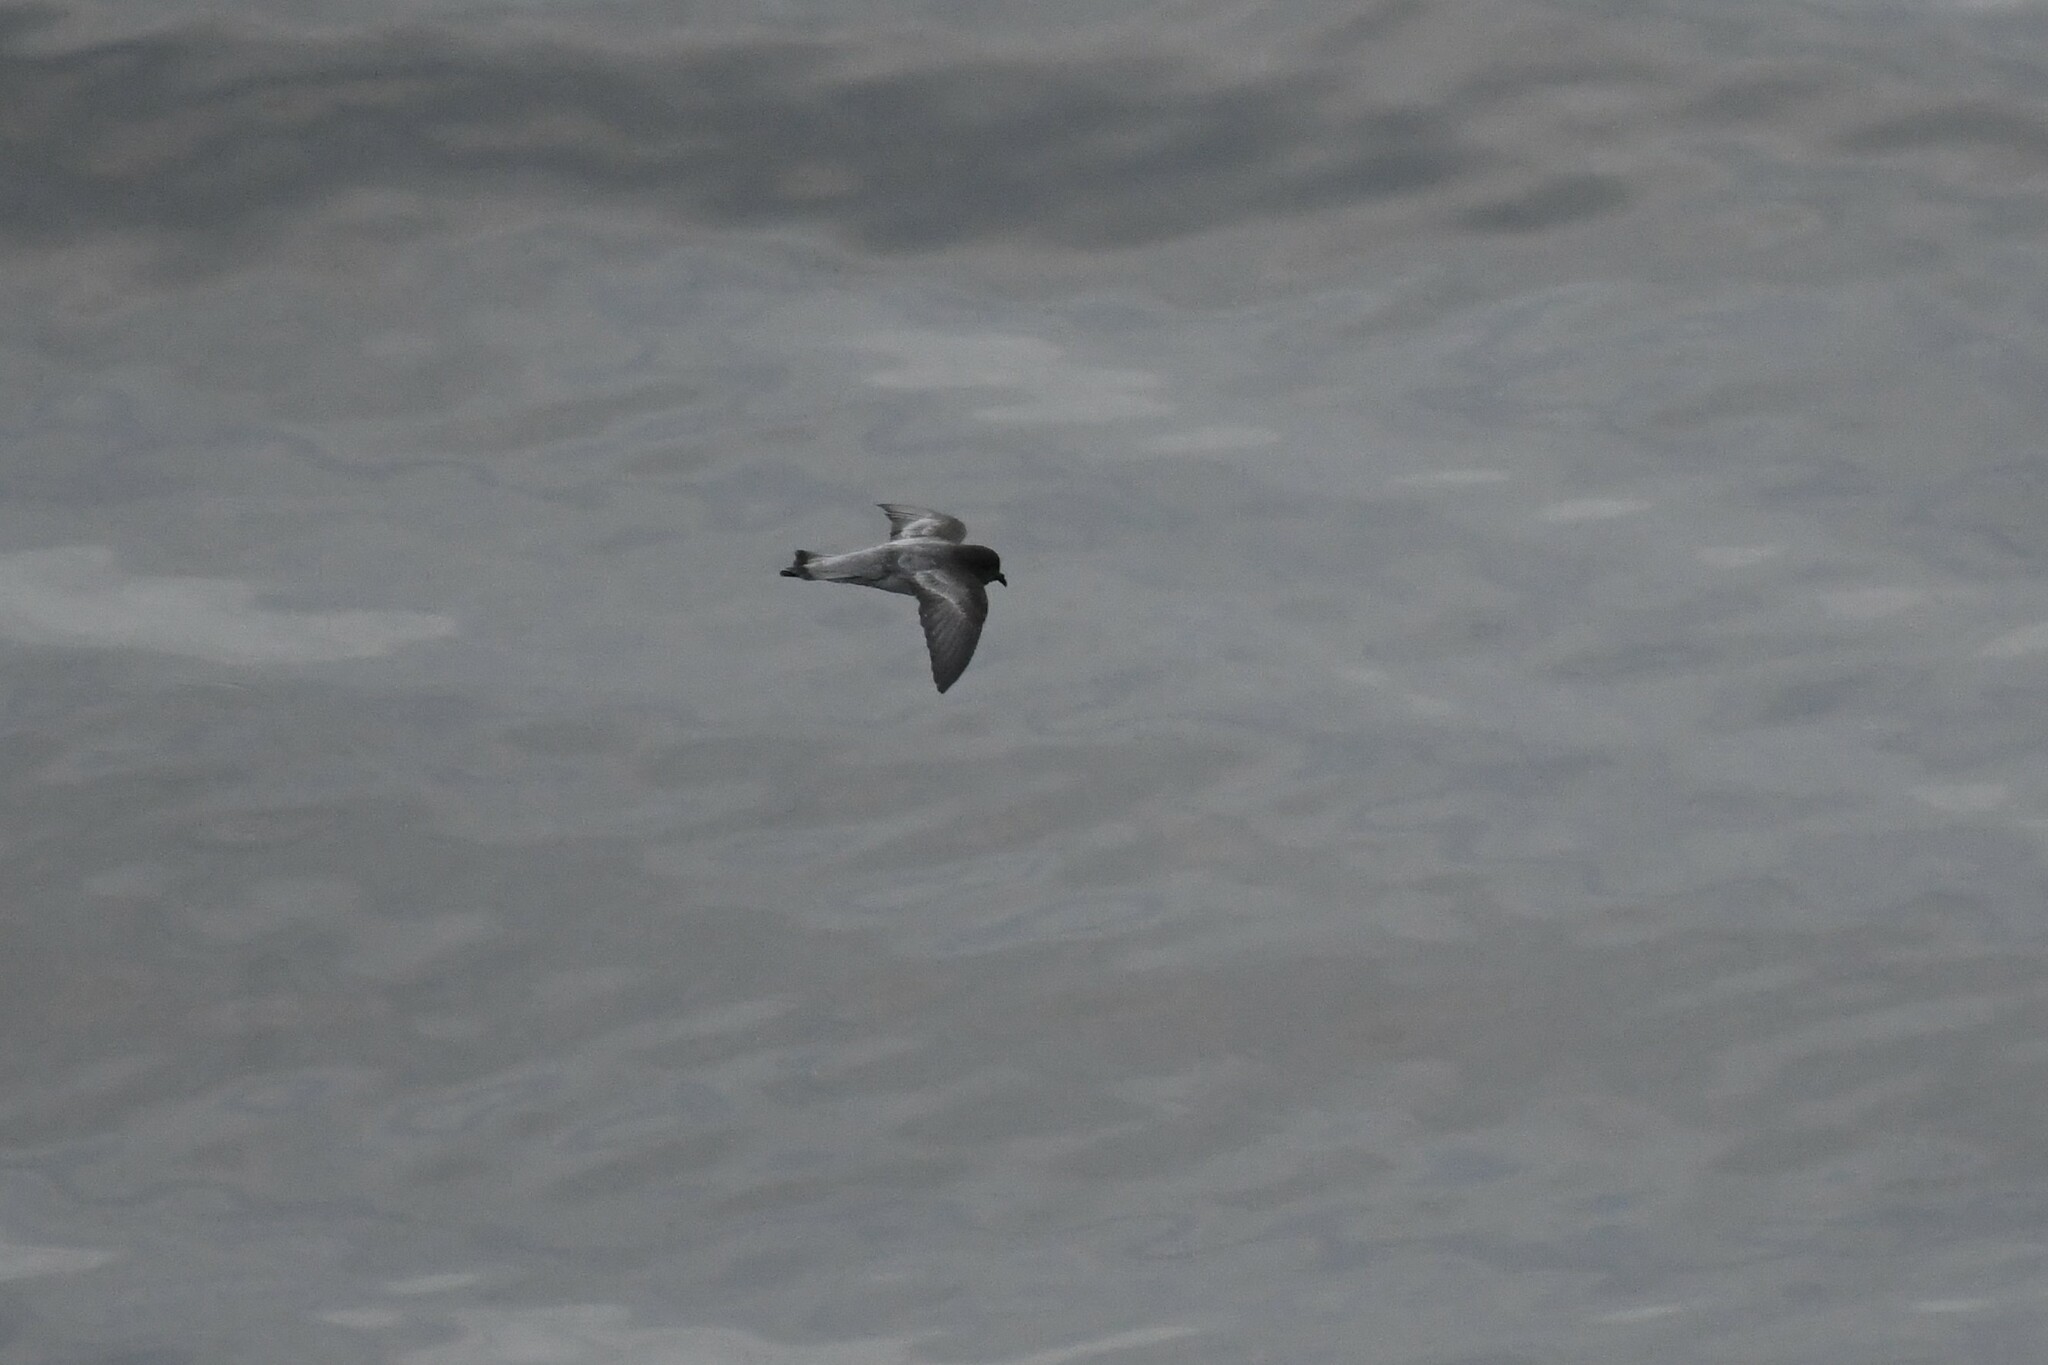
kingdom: Animalia
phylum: Chordata
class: Aves
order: Procellariiformes
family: Hydrobatidae
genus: Garrodia
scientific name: Garrodia nereis
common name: Grey-backed storm petrel
